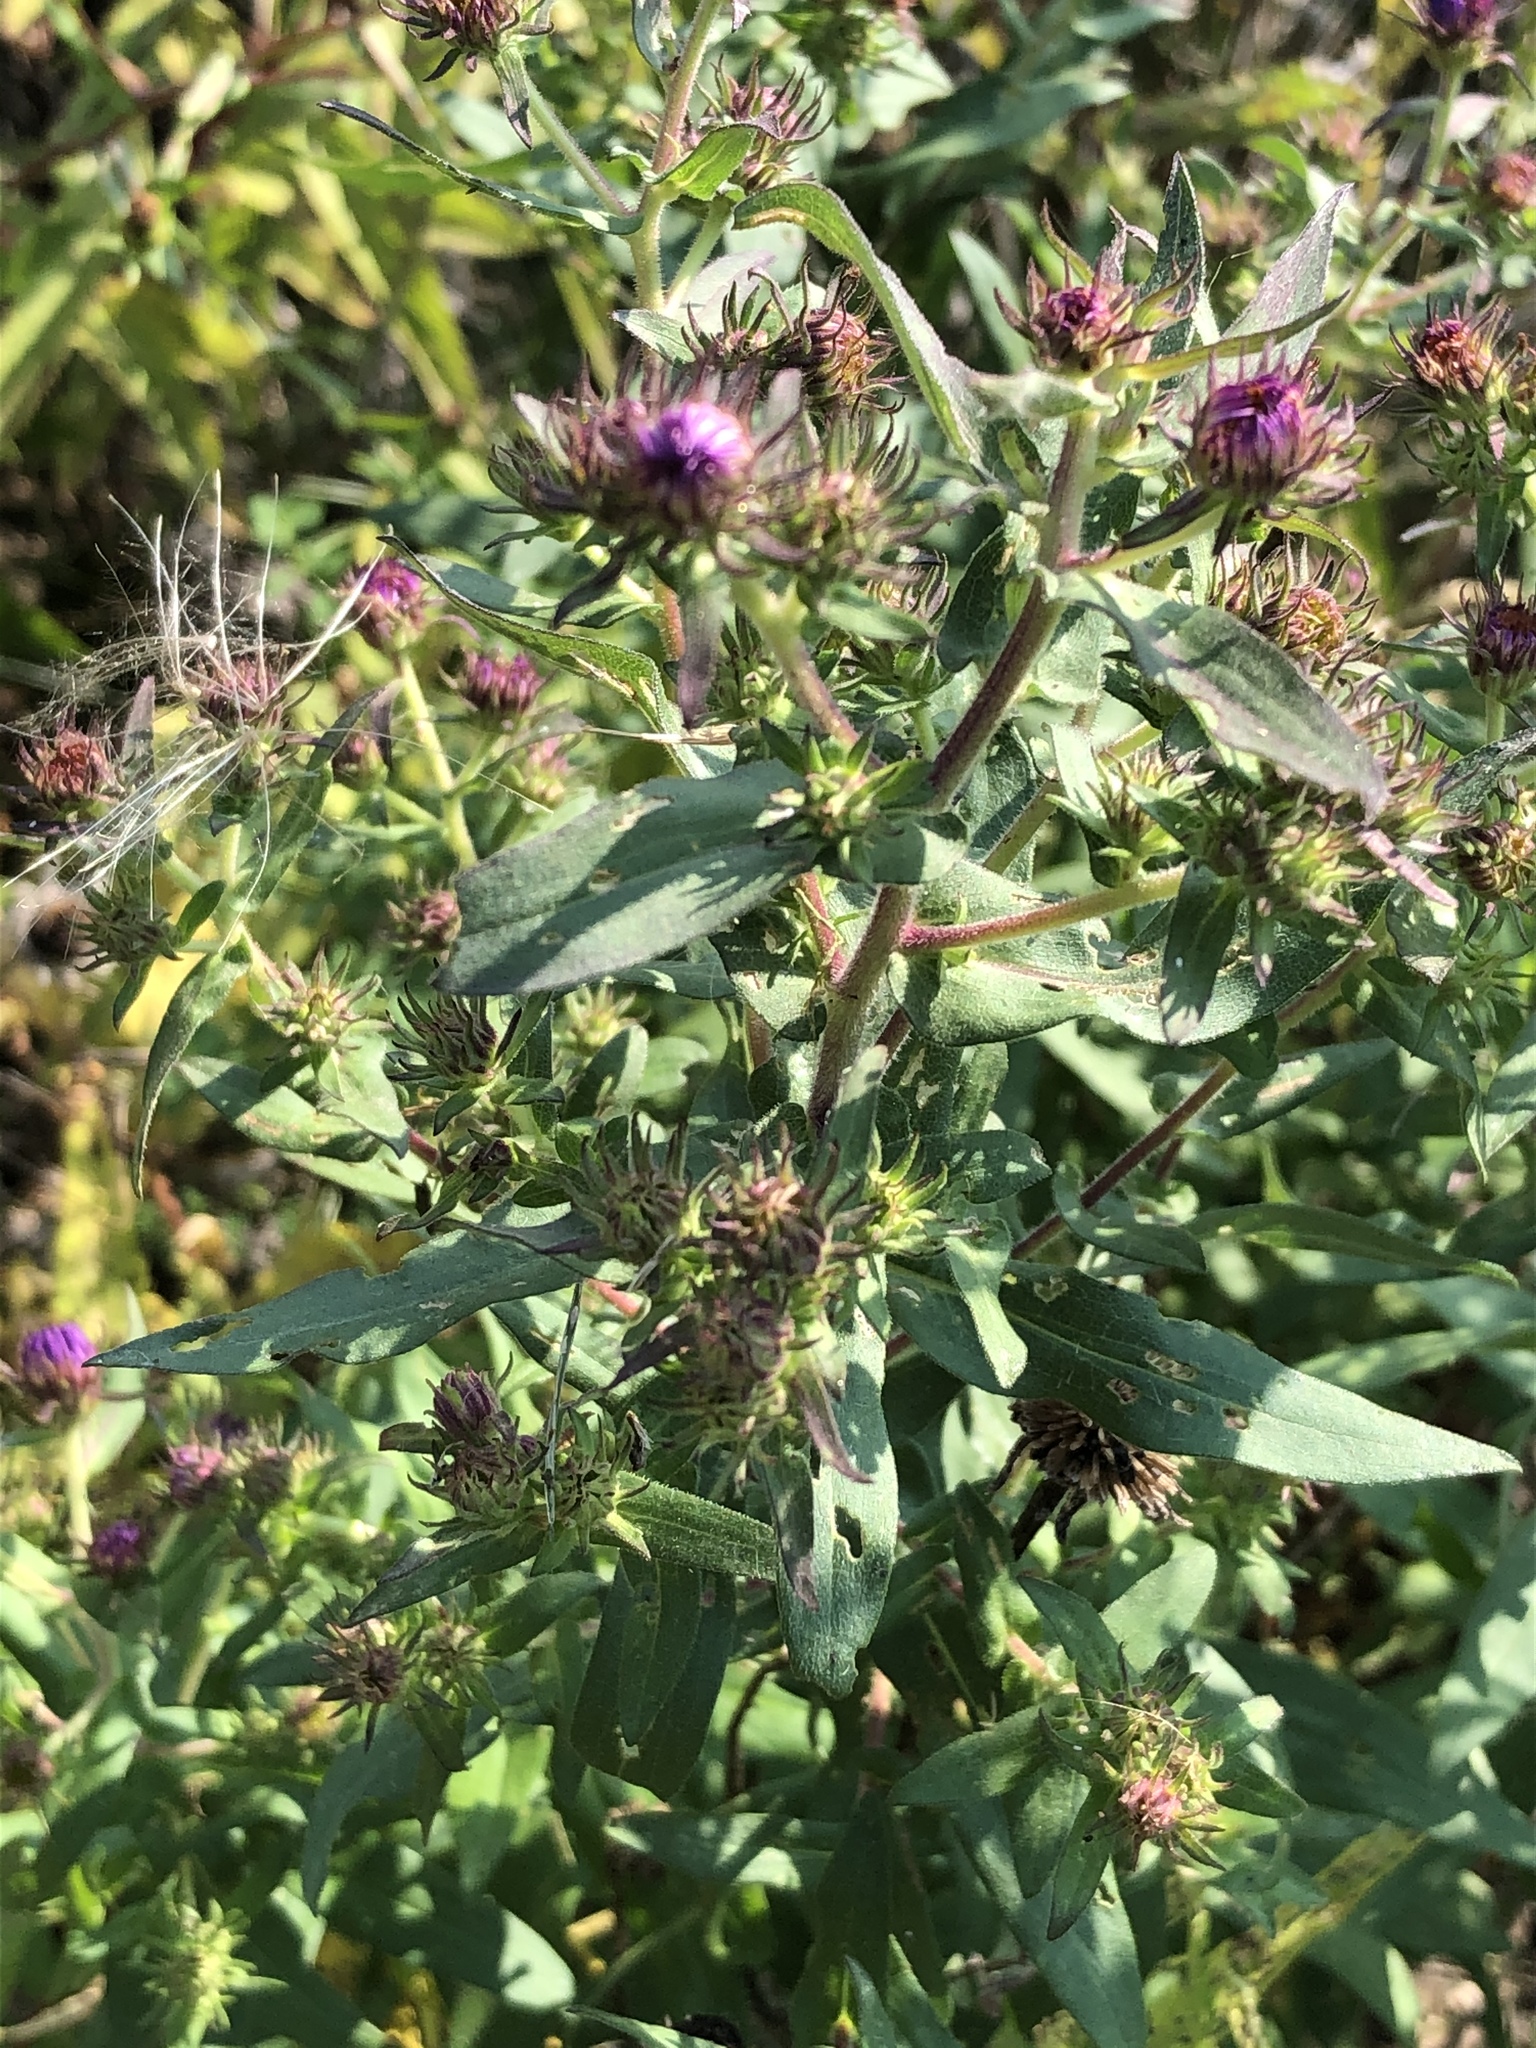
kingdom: Plantae
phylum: Tracheophyta
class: Magnoliopsida
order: Asterales
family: Asteraceae
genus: Symphyotrichum
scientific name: Symphyotrichum novae-angliae
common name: Michaelmas daisy
